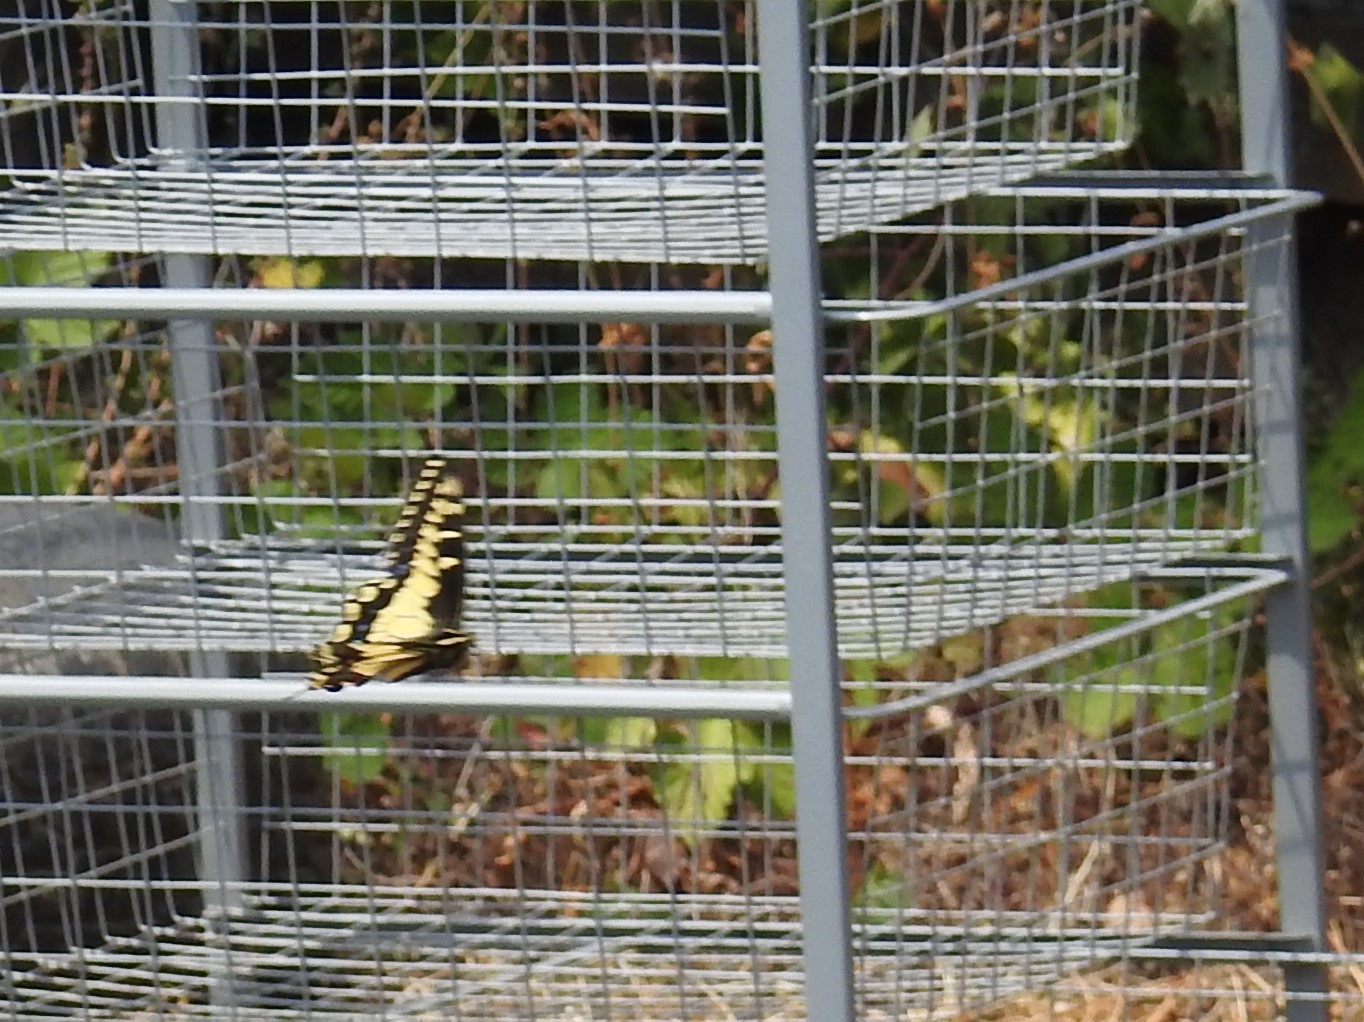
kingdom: Animalia
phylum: Arthropoda
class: Insecta
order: Lepidoptera
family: Papilionidae
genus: Papilio
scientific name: Papilio zelicaon
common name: Anise swallowtail
